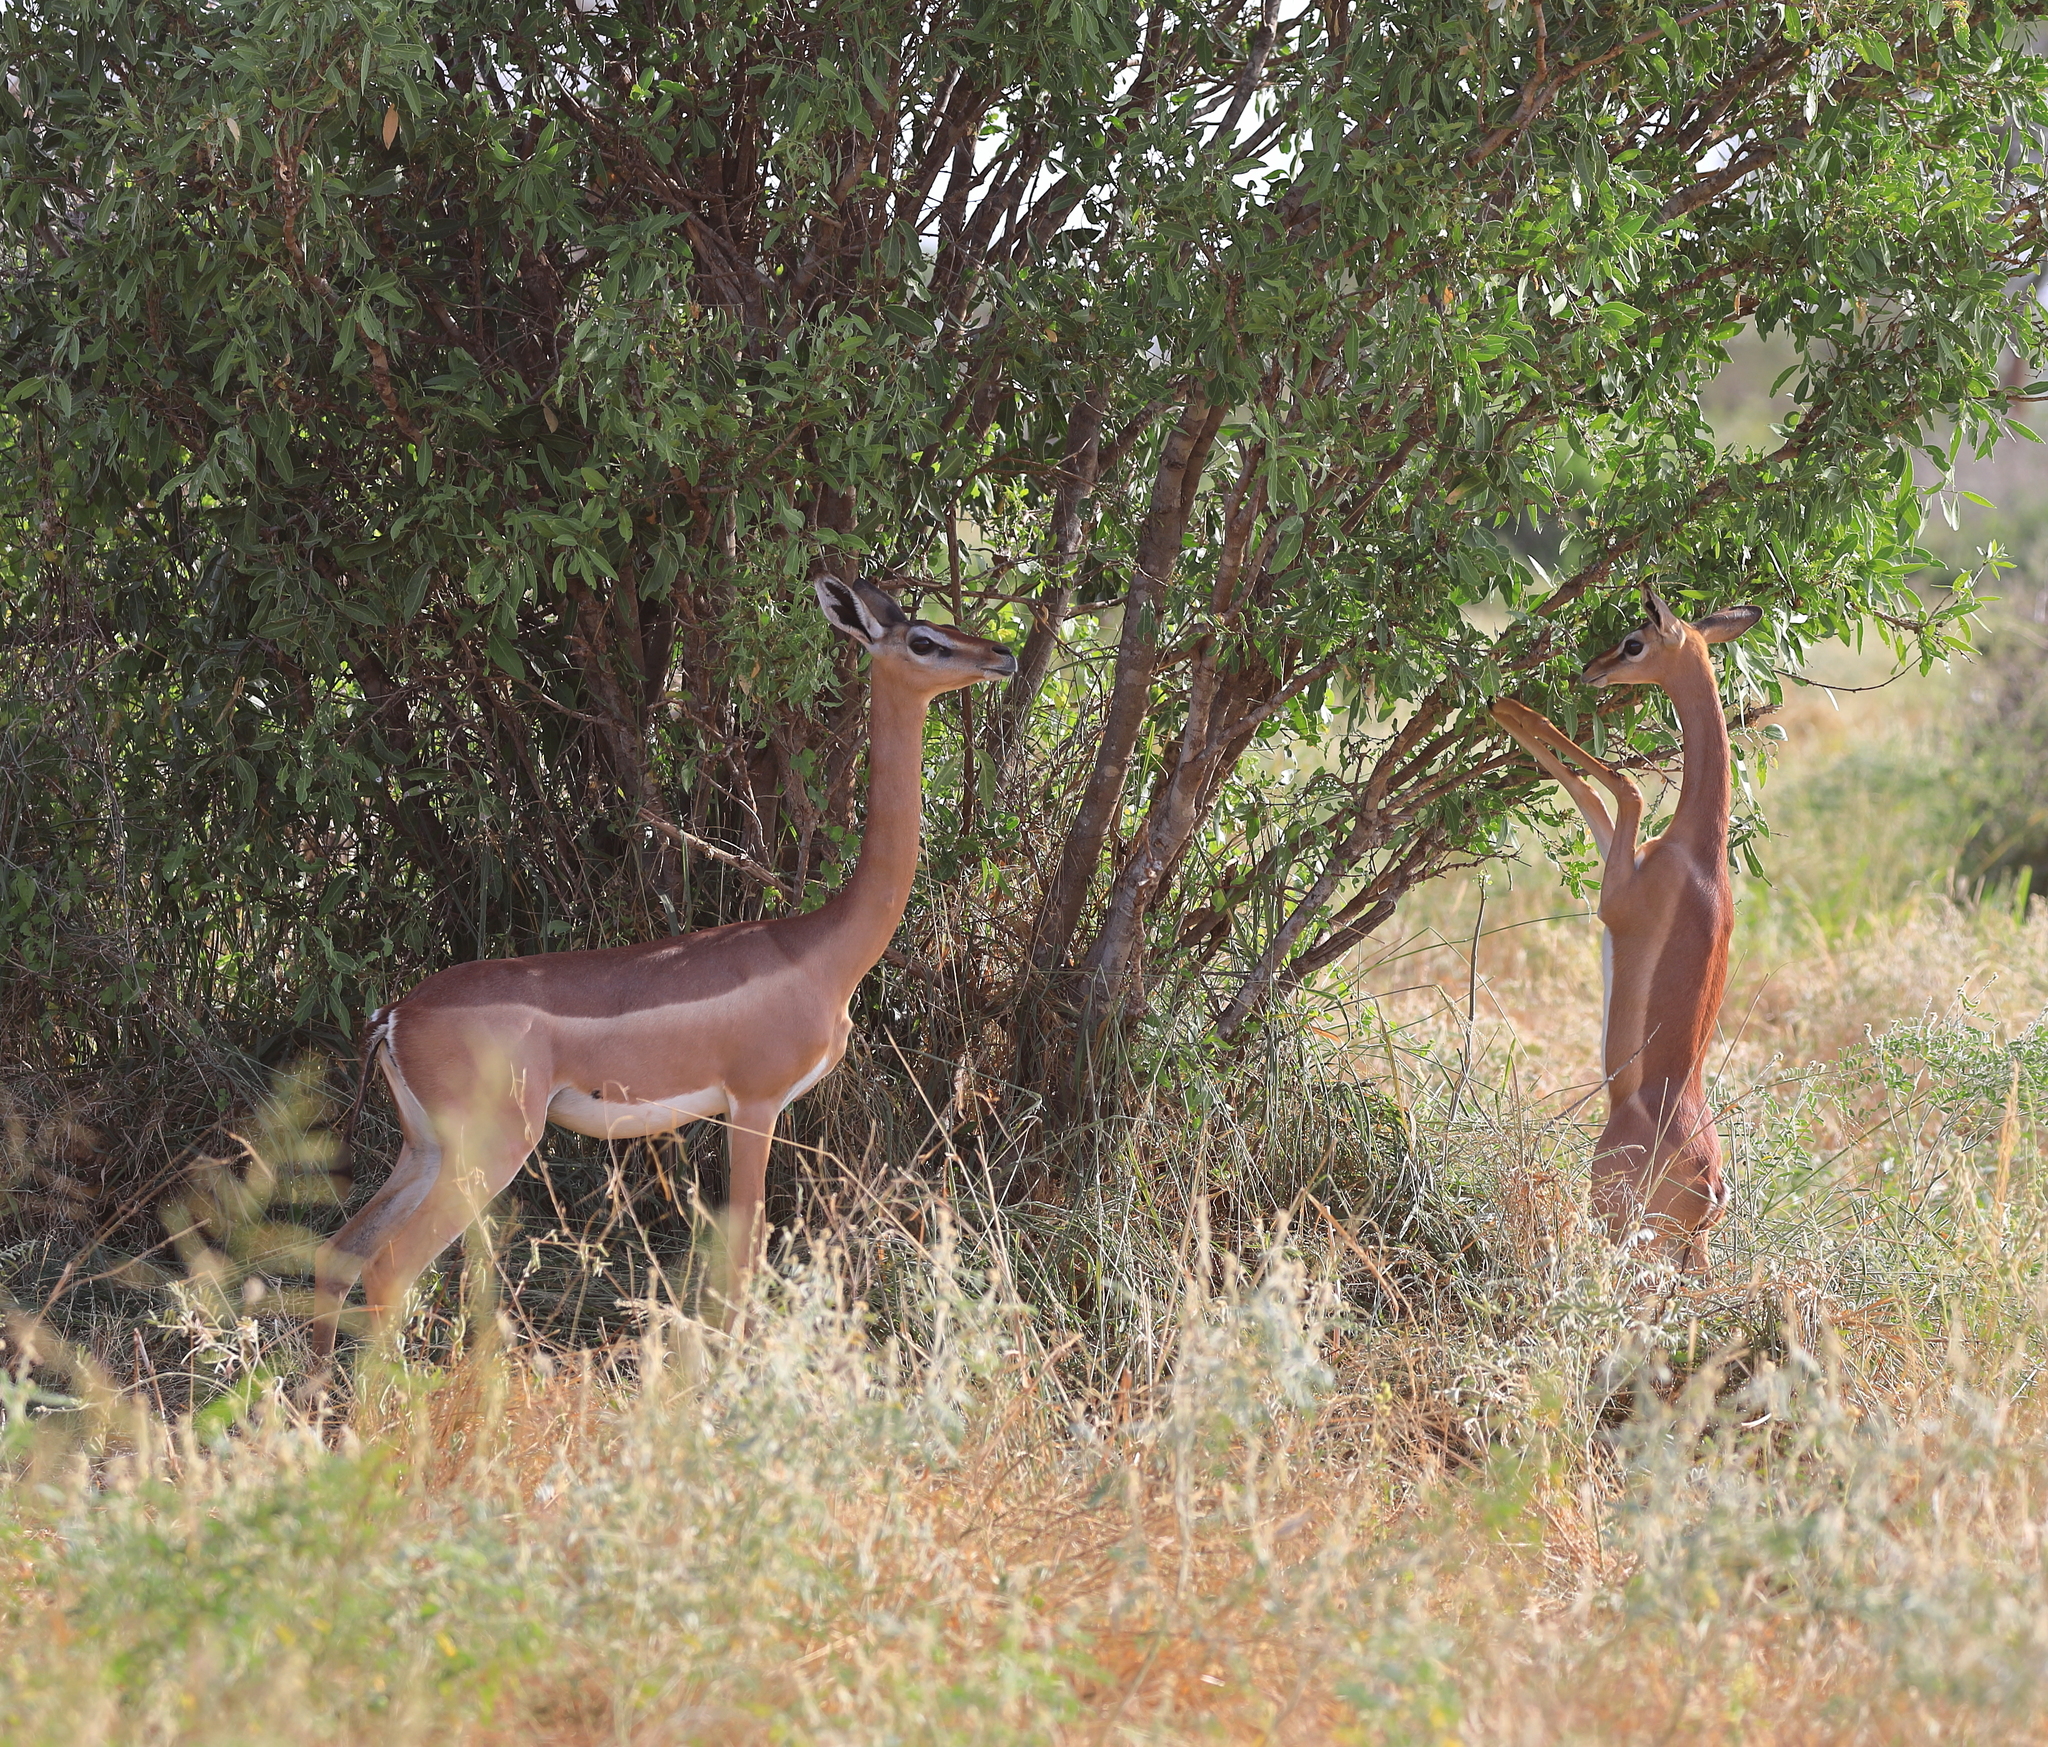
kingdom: Animalia
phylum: Chordata
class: Mammalia
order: Artiodactyla
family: Bovidae
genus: Litocranius
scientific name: Litocranius walleri
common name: Gerenuk
